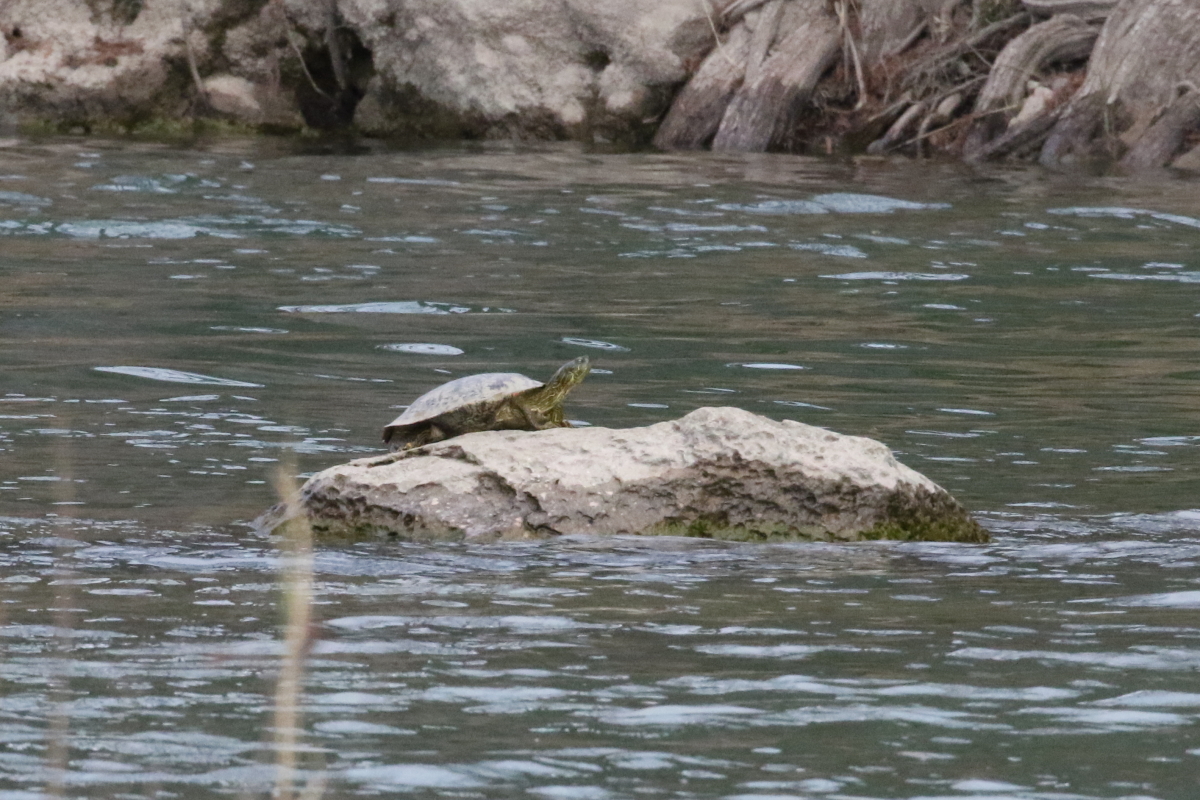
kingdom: Animalia
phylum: Chordata
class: Testudines
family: Emydidae
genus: Pseudemys
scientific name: Pseudemys texana
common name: Texas river cooter
